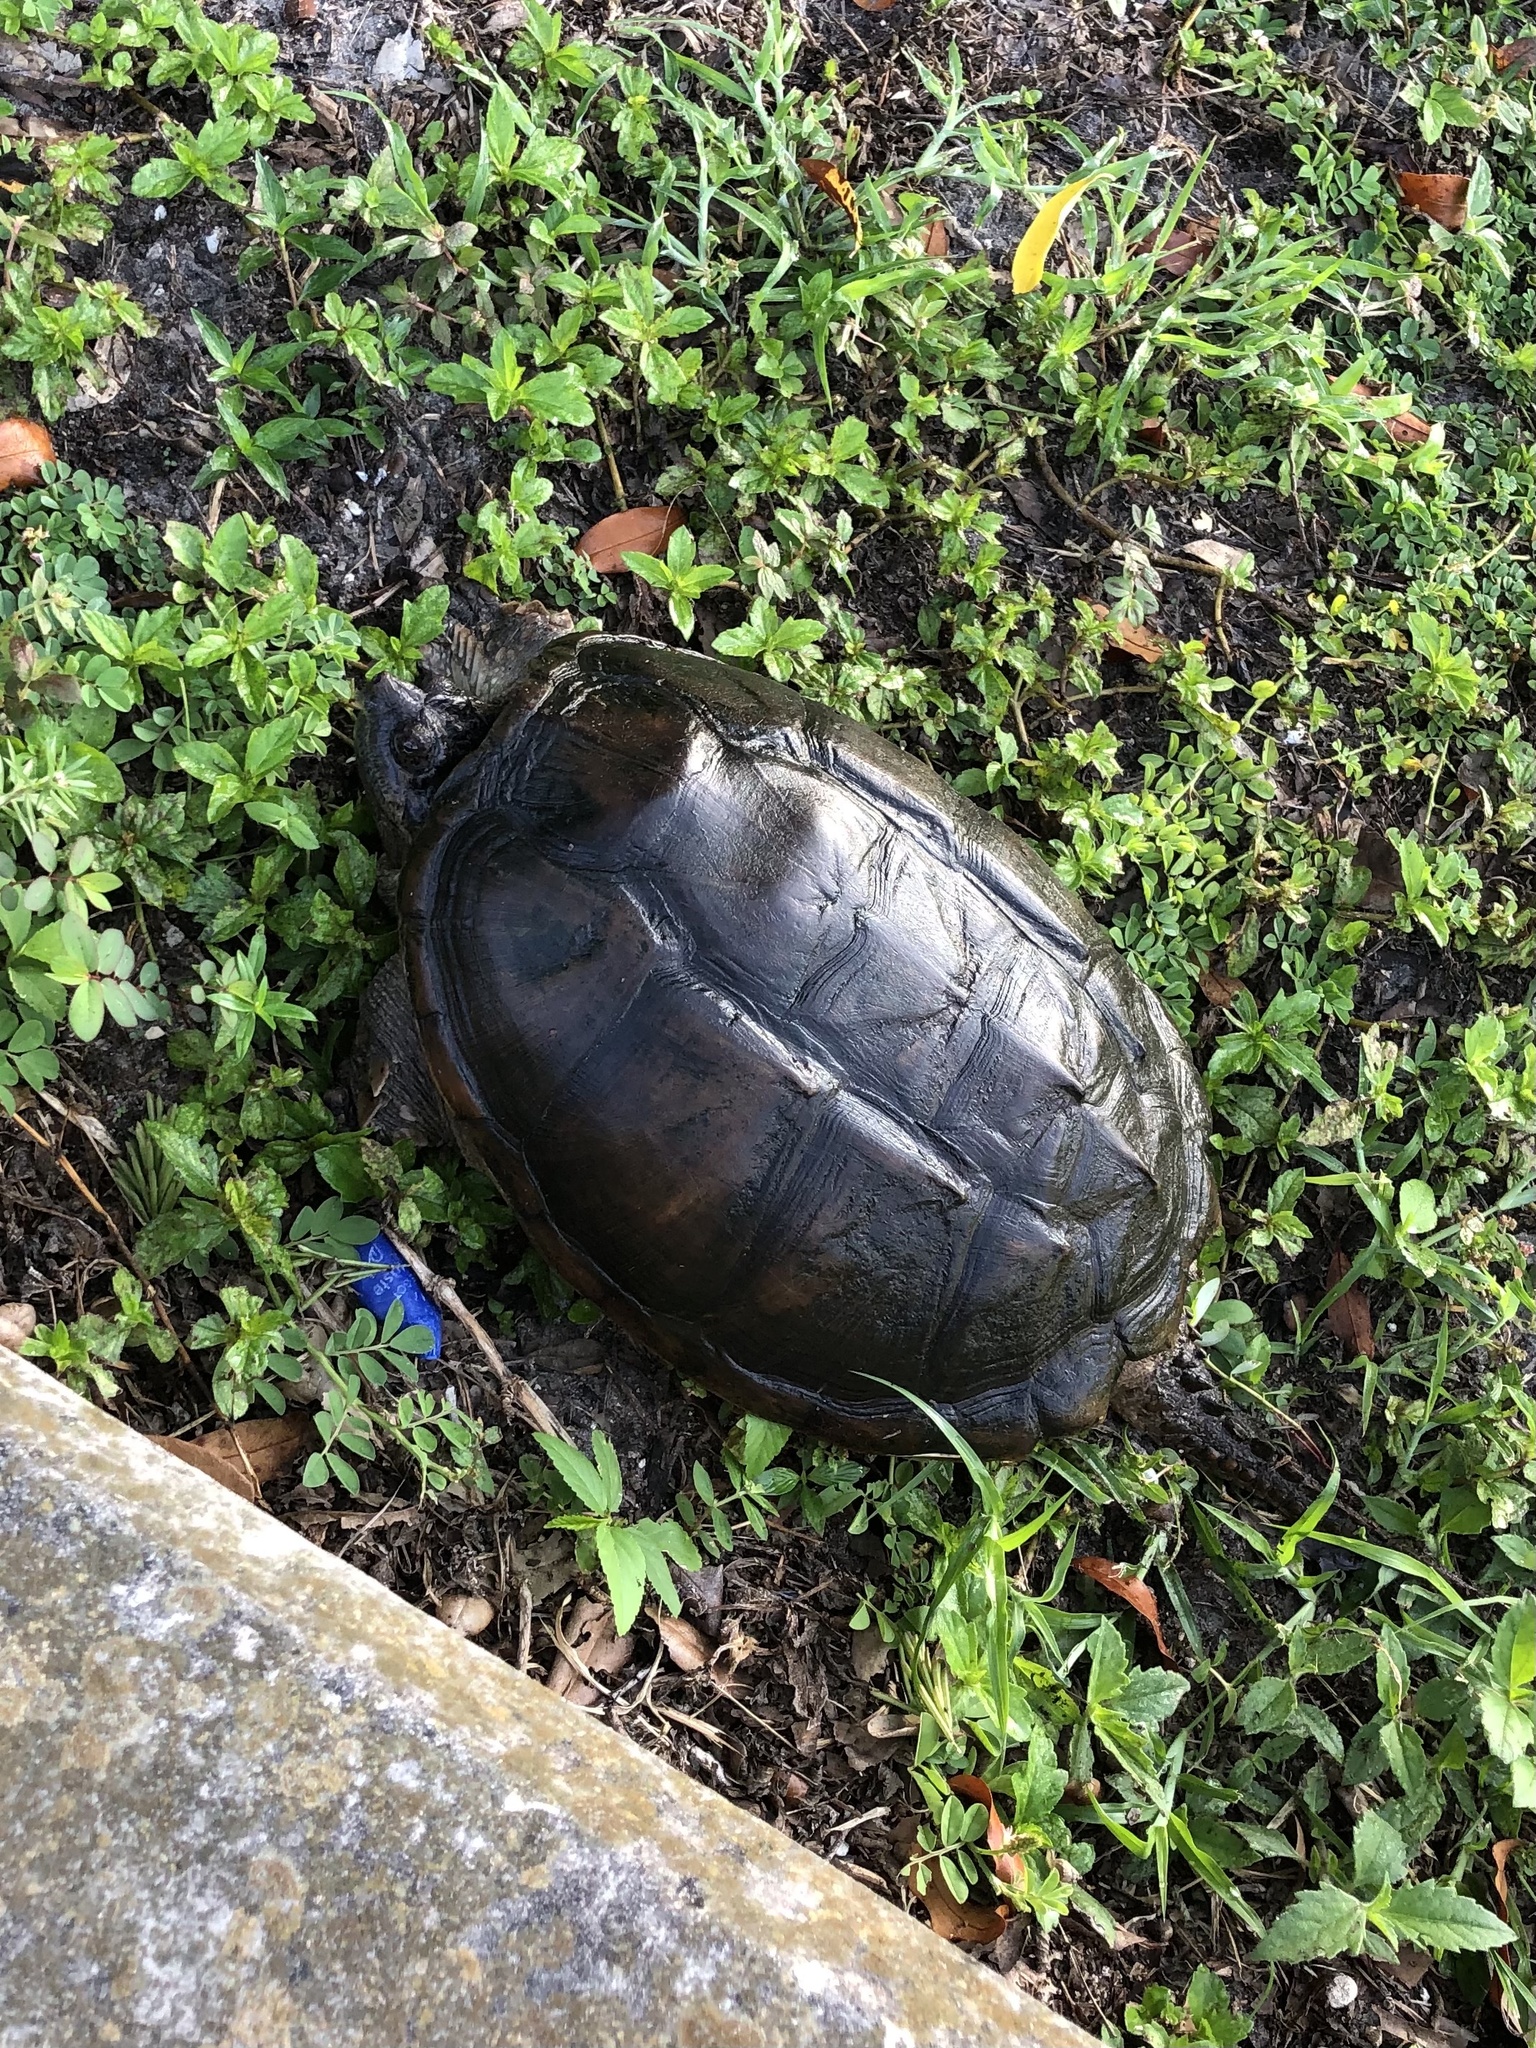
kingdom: Animalia
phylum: Chordata
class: Testudines
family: Chelydridae
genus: Chelydra
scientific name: Chelydra serpentina
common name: Common snapping turtle
